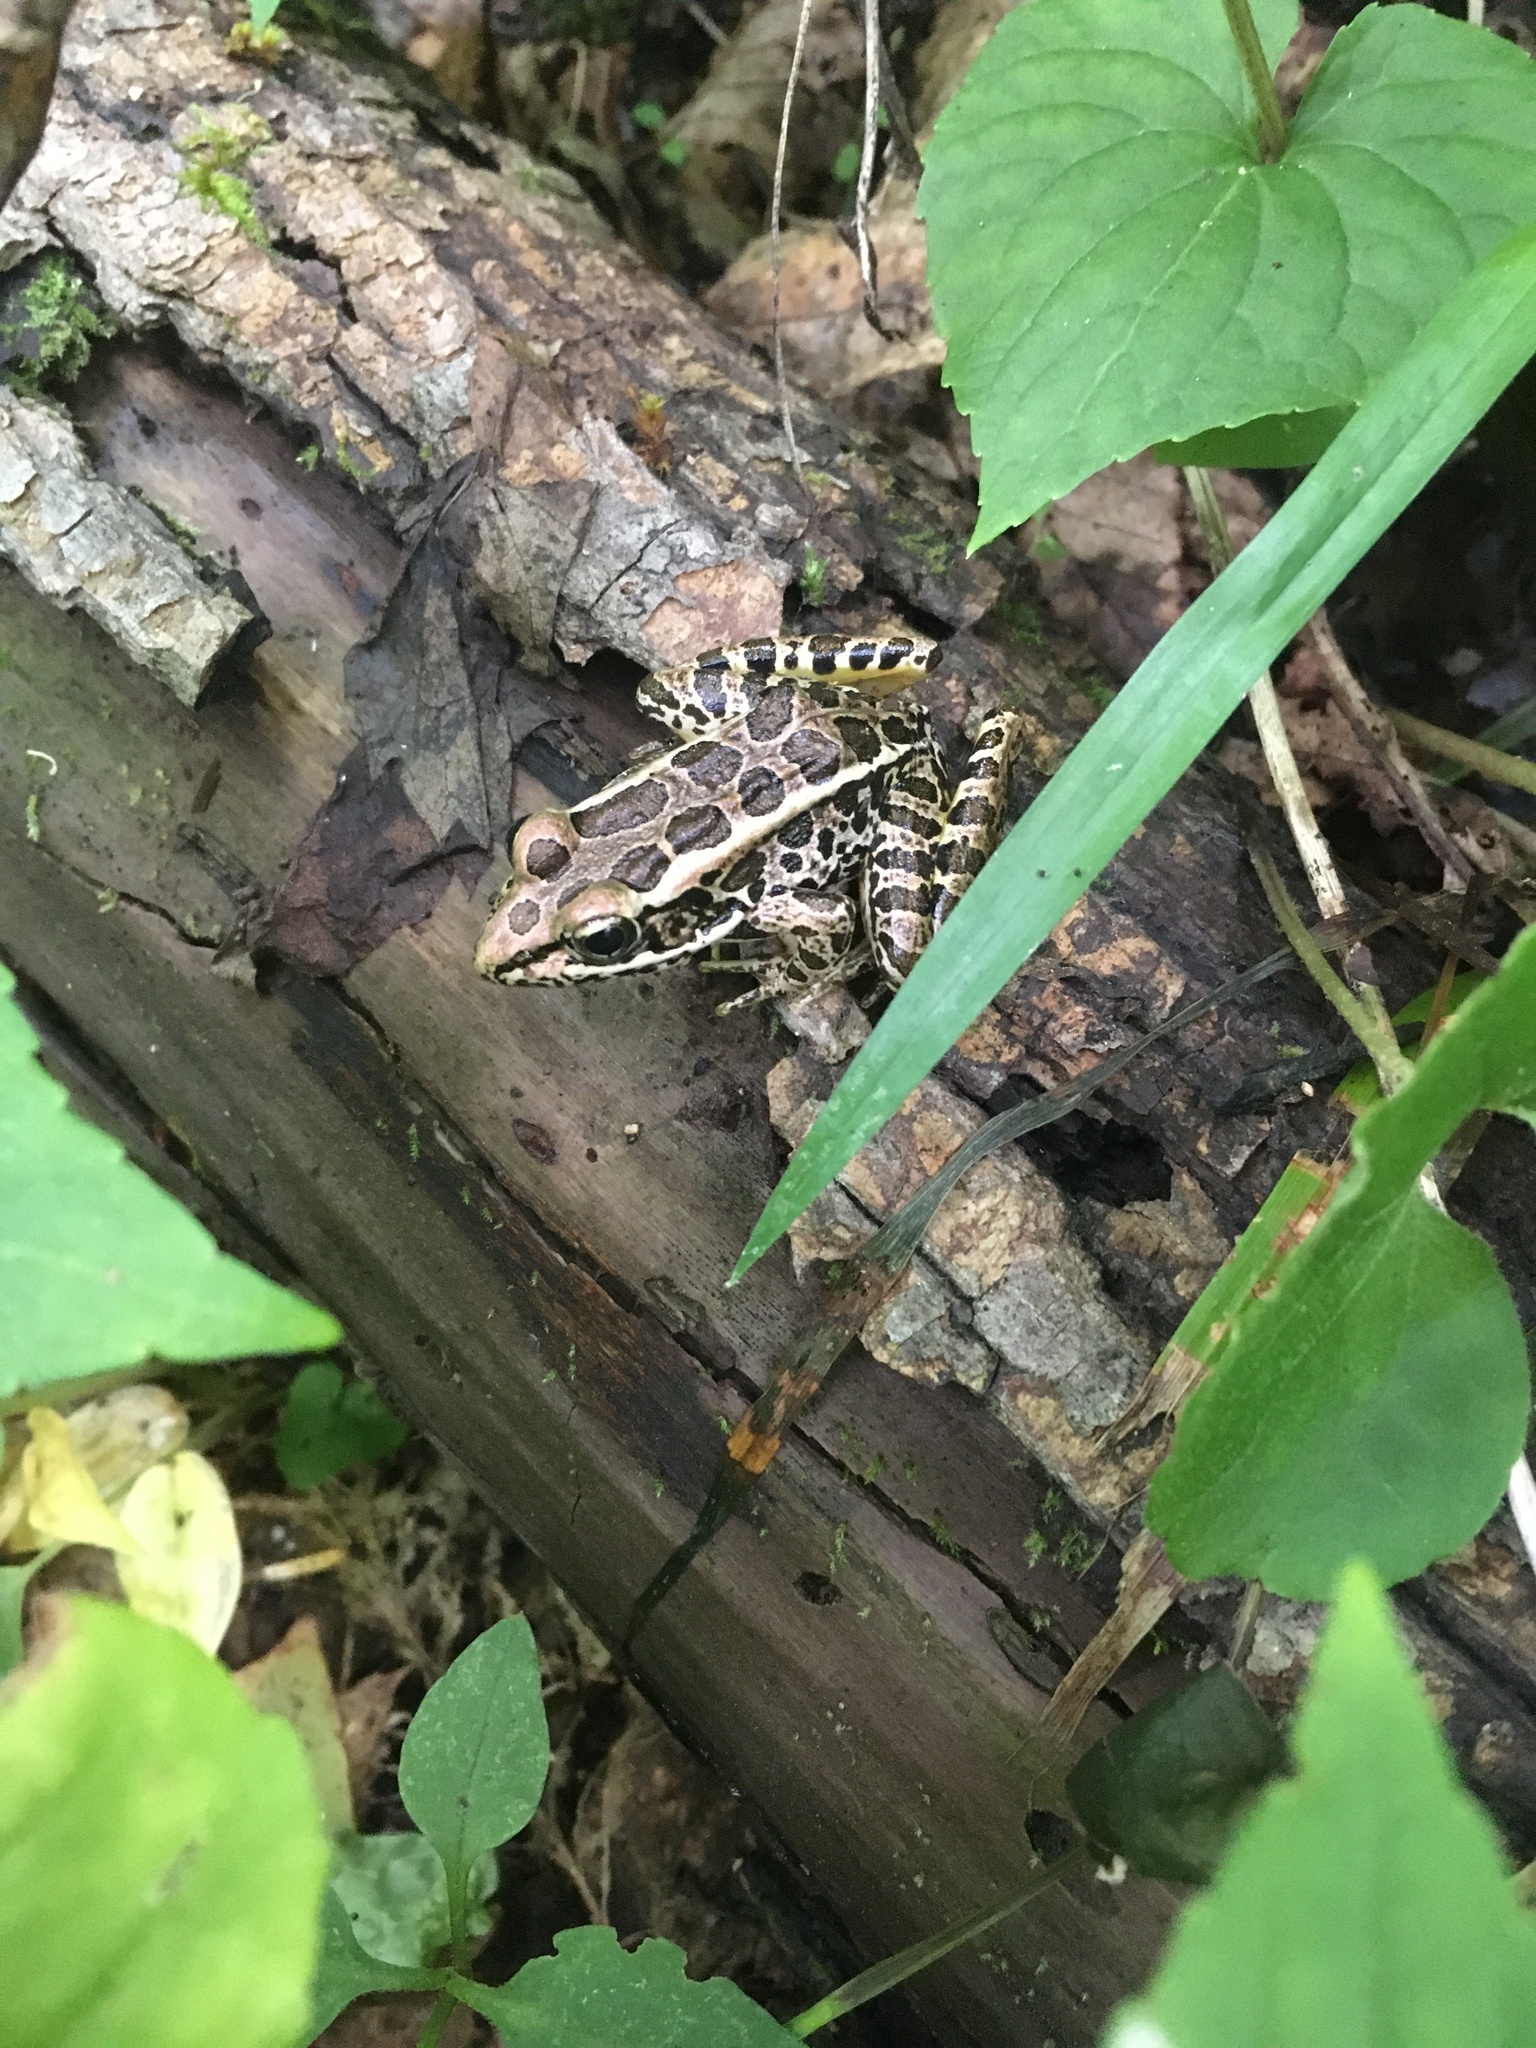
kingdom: Animalia
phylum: Chordata
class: Amphibia
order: Anura
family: Ranidae
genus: Lithobates
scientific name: Lithobates palustris
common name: Pickerel frog
